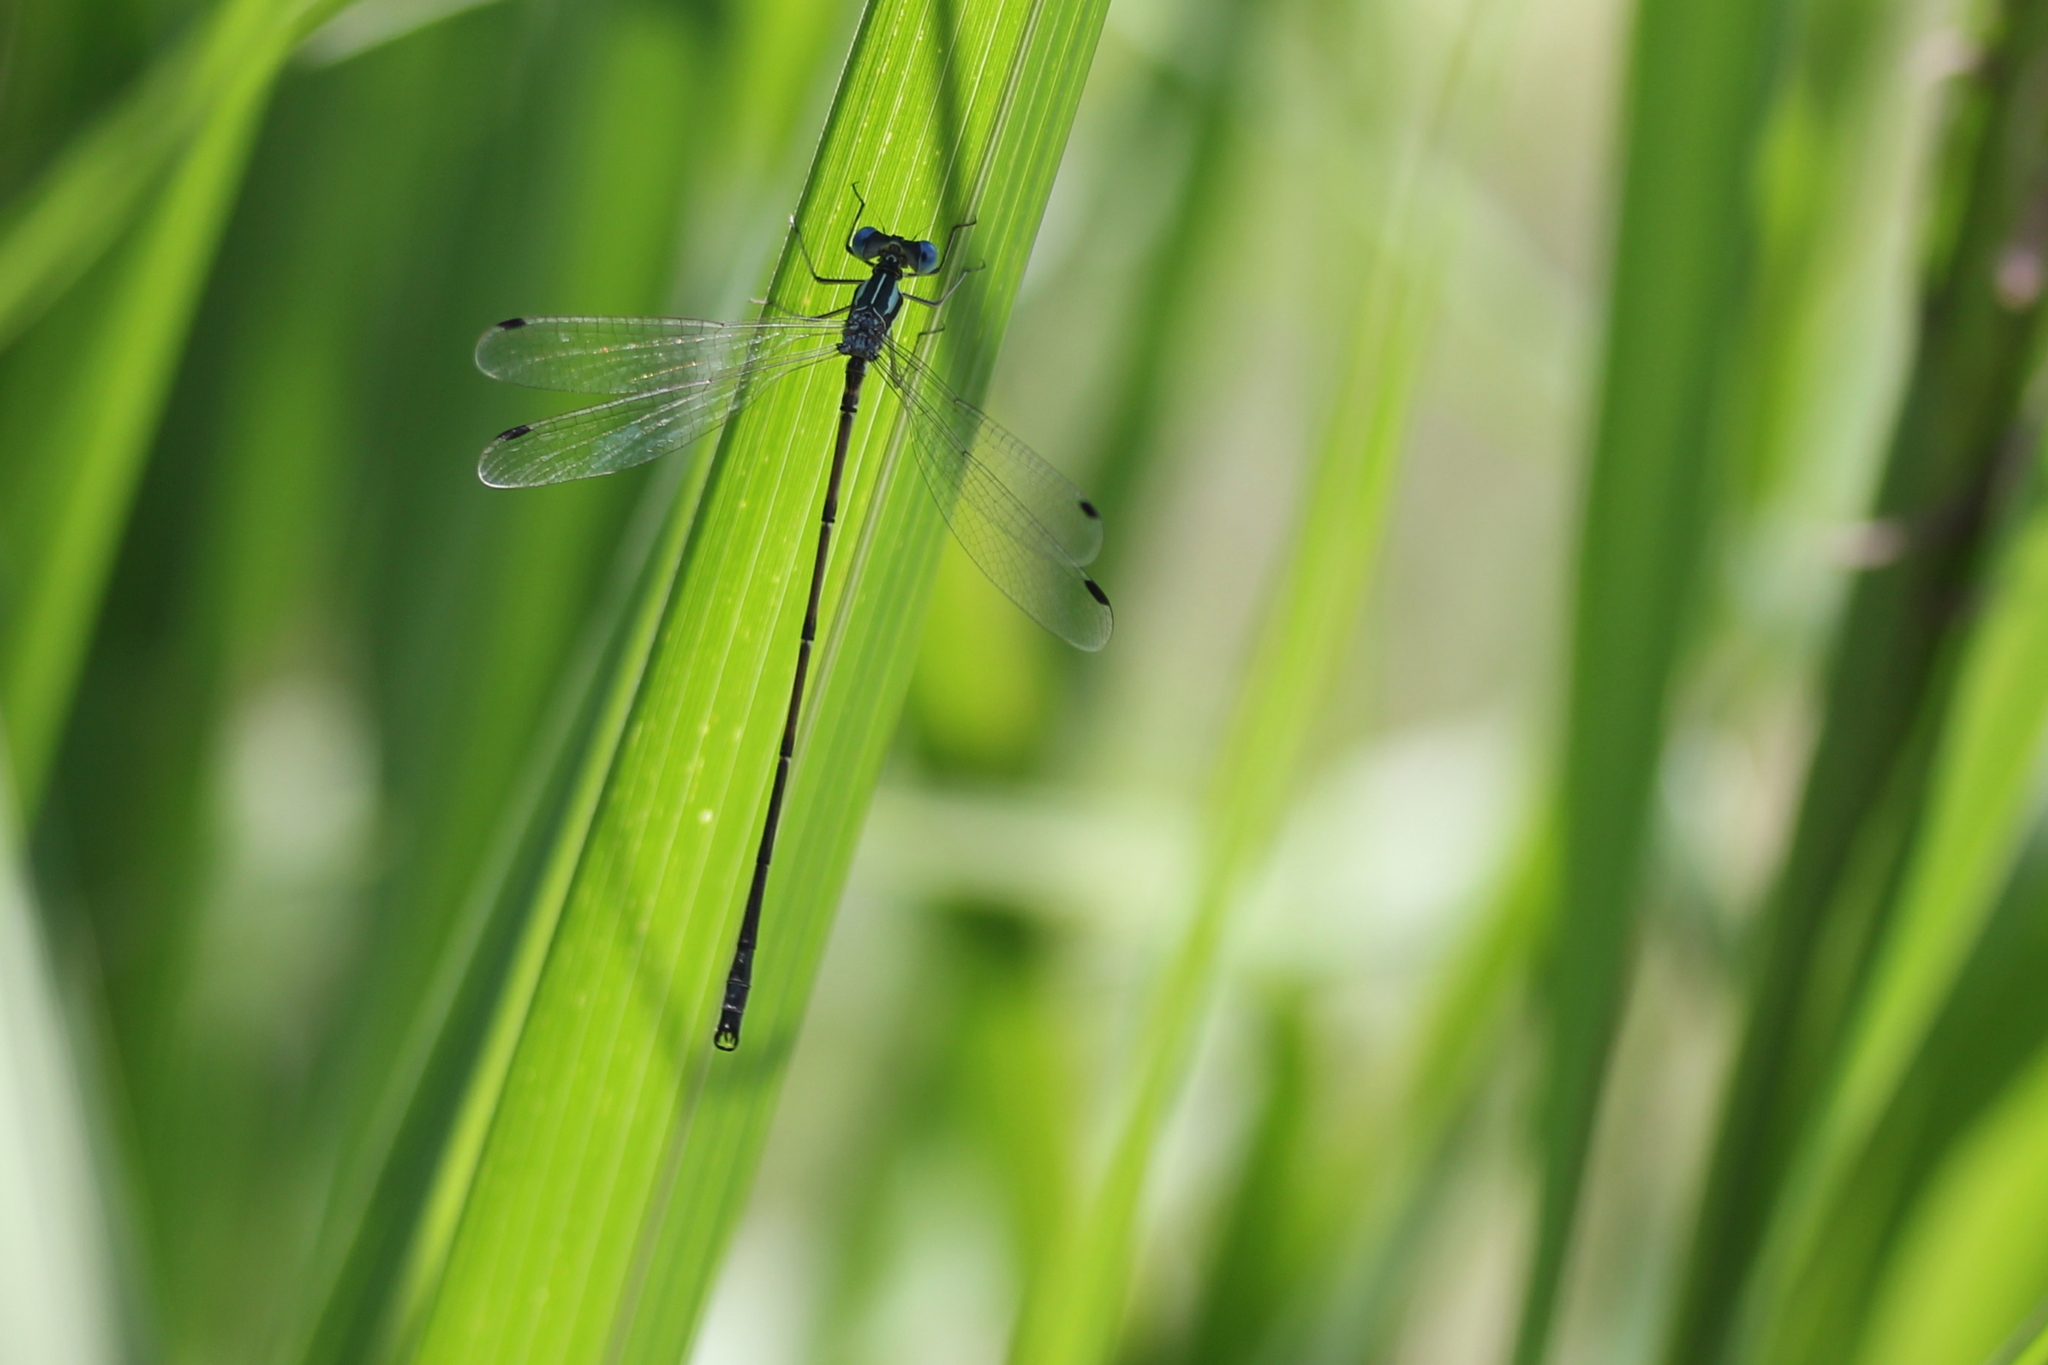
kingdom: Animalia
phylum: Arthropoda
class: Insecta
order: Odonata
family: Lestidae
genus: Lestes
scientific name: Lestes rectangularis
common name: Slender spreadwing
